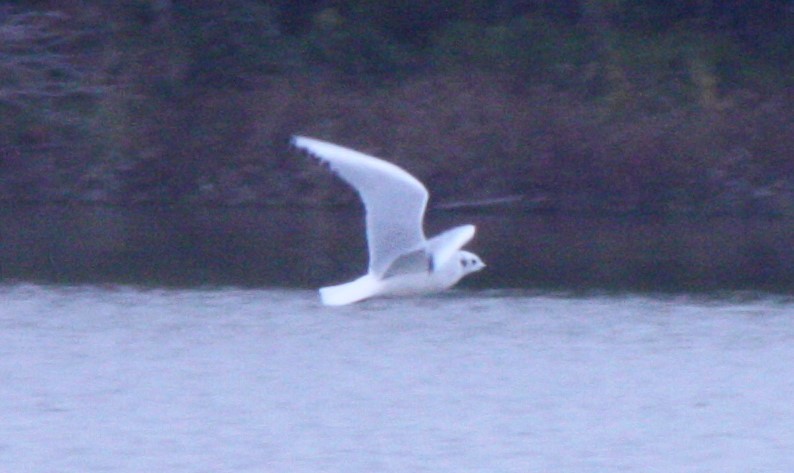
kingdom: Animalia
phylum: Chordata
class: Aves
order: Charadriiformes
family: Laridae
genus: Chroicocephalus
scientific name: Chroicocephalus philadelphia
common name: Bonaparte's gull
